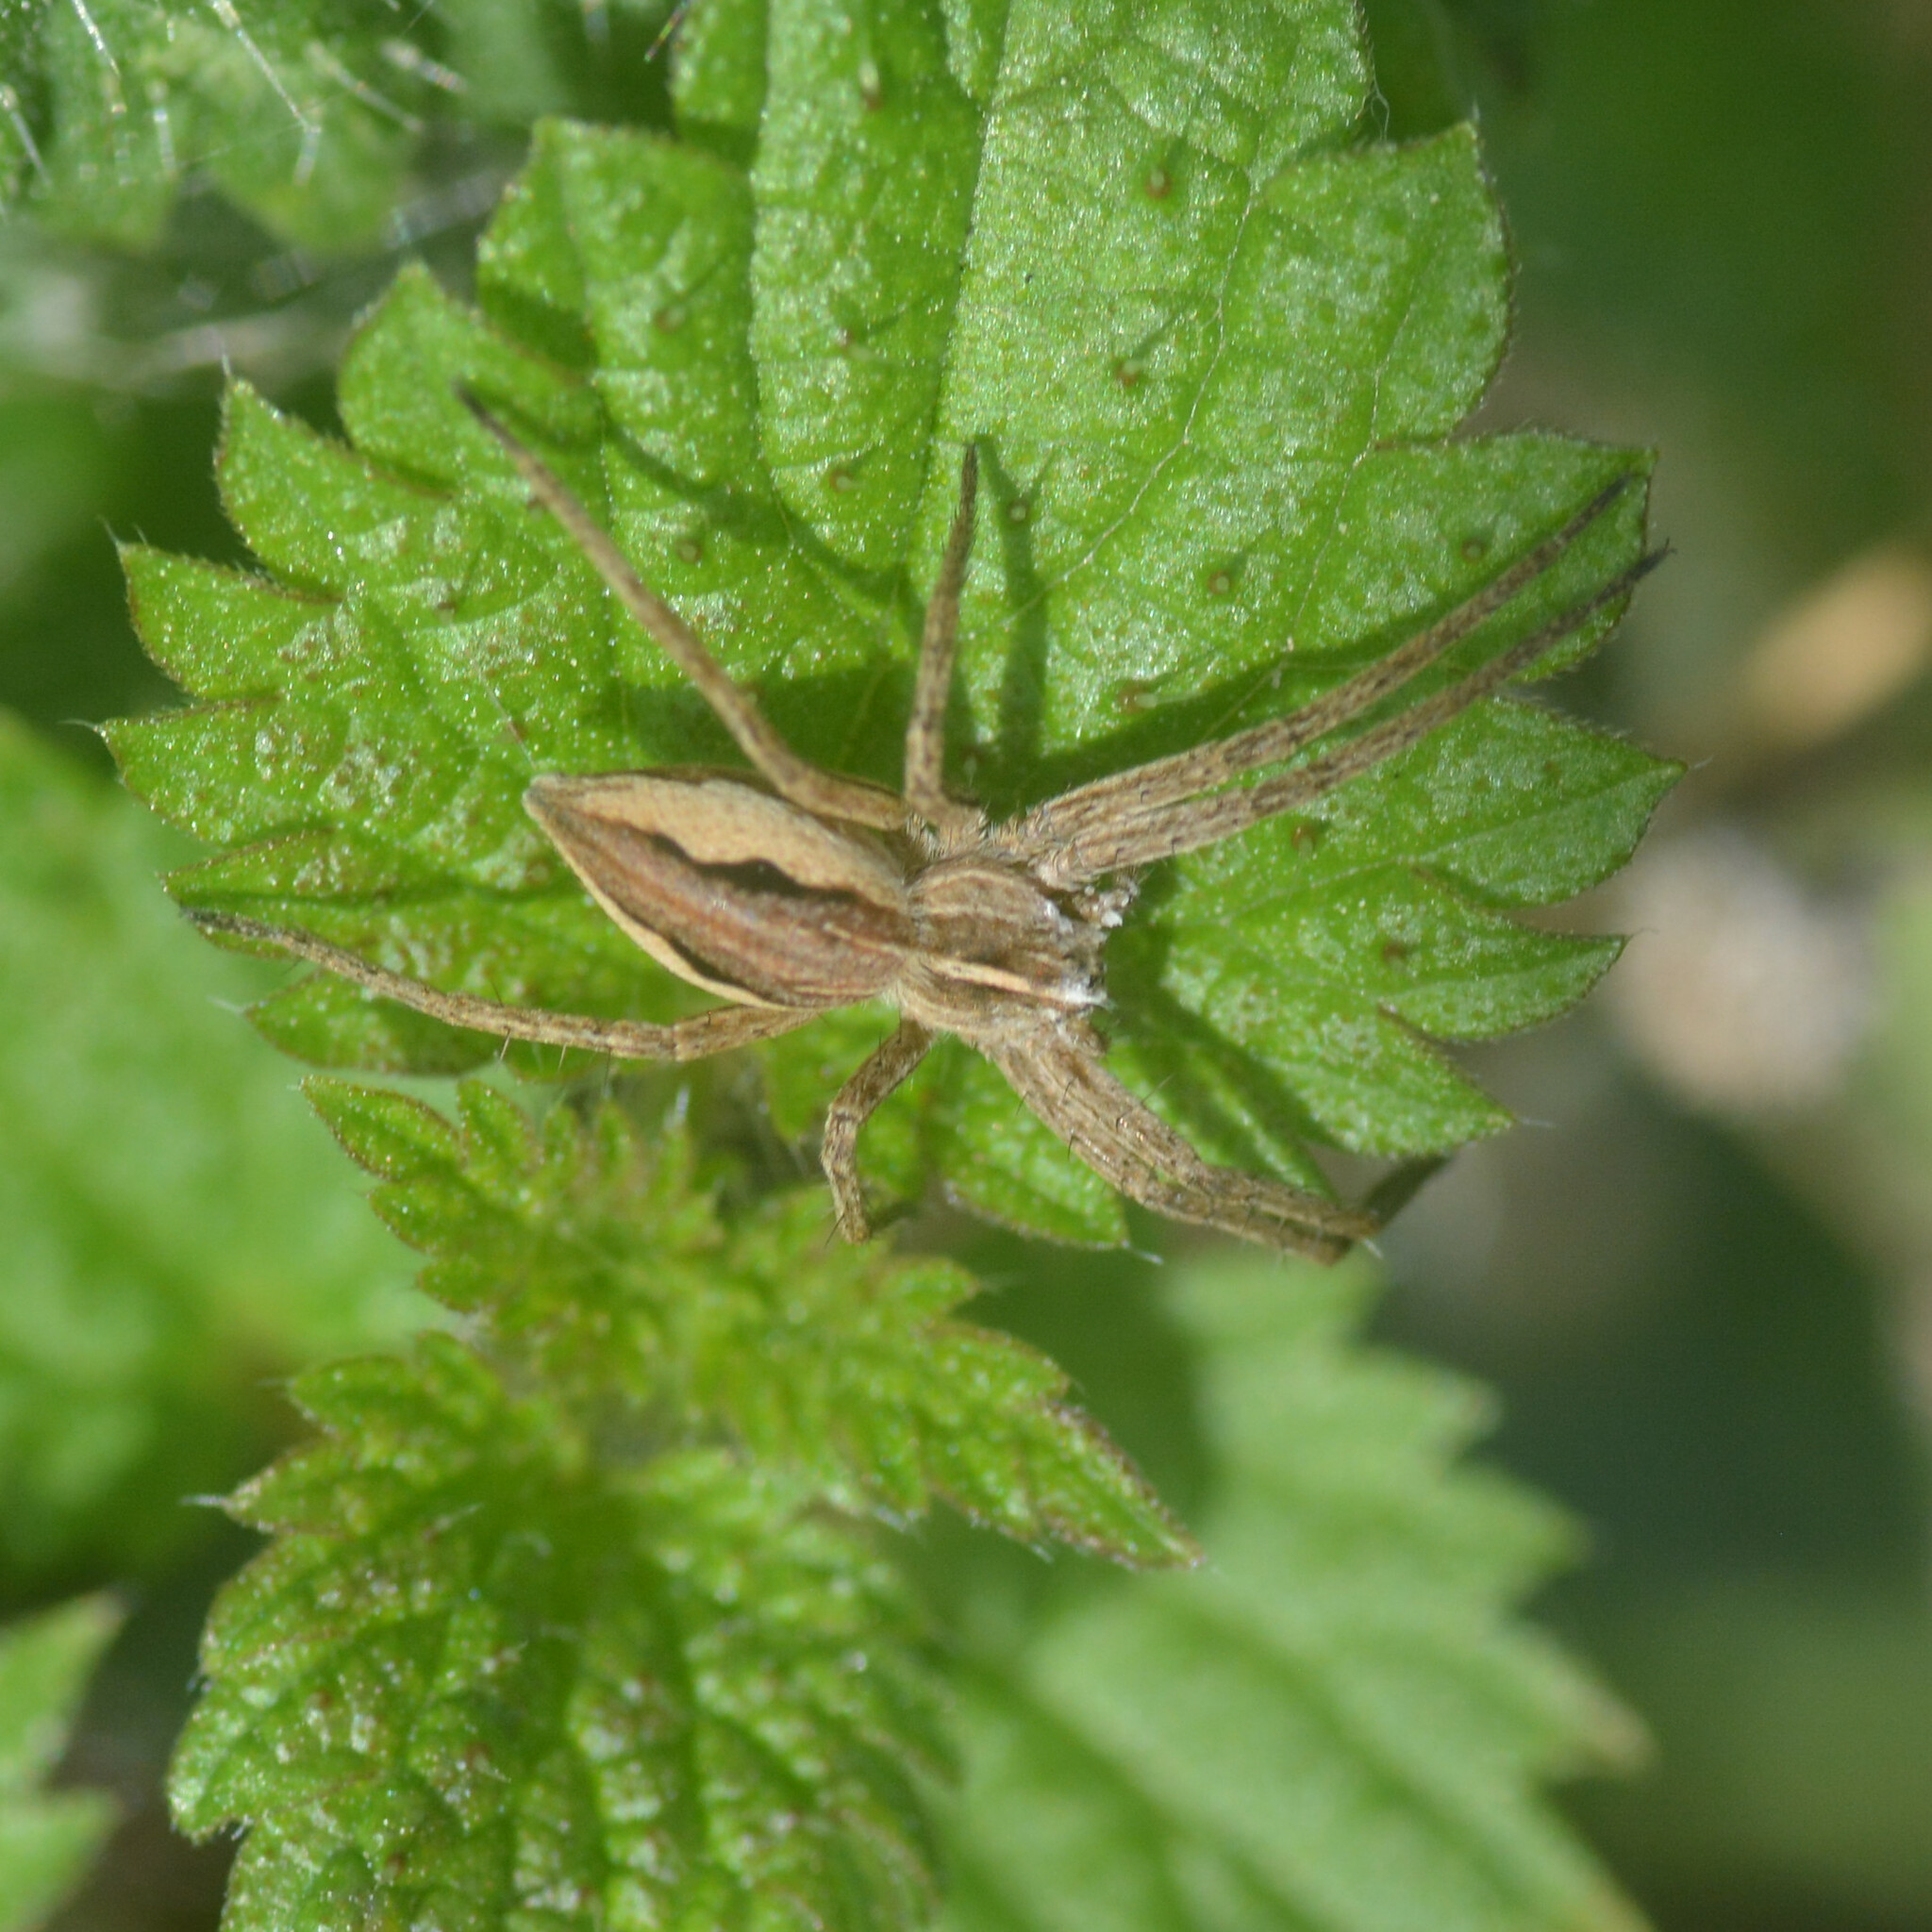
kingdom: Animalia
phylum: Arthropoda
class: Arachnida
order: Araneae
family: Pisauridae
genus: Pisaura
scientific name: Pisaura mirabilis
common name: Tent spider
